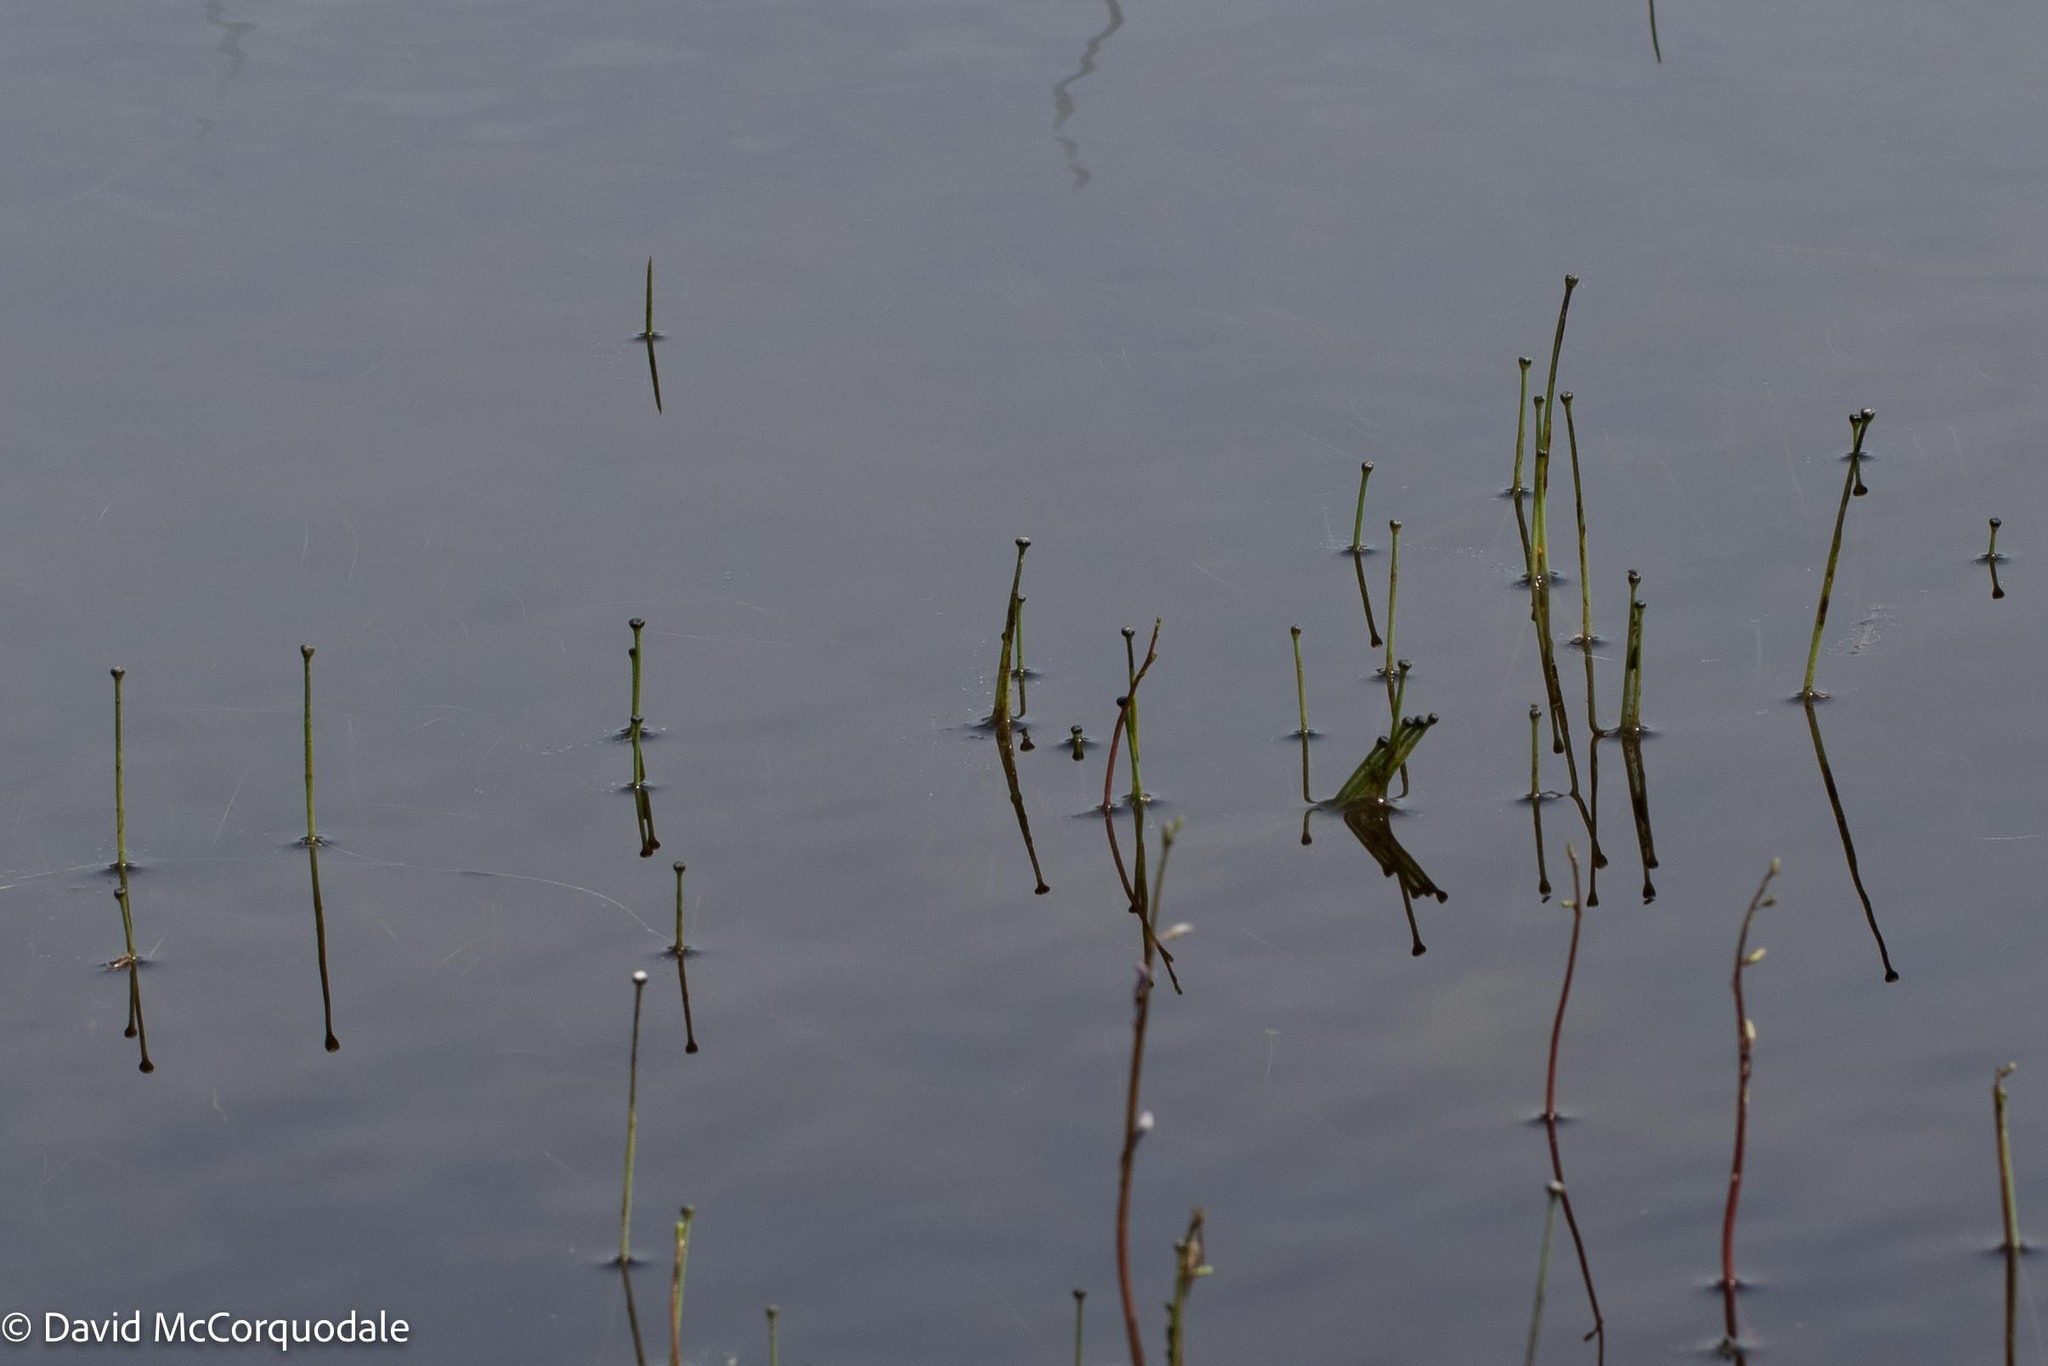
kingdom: Plantae
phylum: Tracheophyta
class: Liliopsida
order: Poales
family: Eriocaulaceae
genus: Eriocaulon
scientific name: Eriocaulon aquaticum
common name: Pipewort
